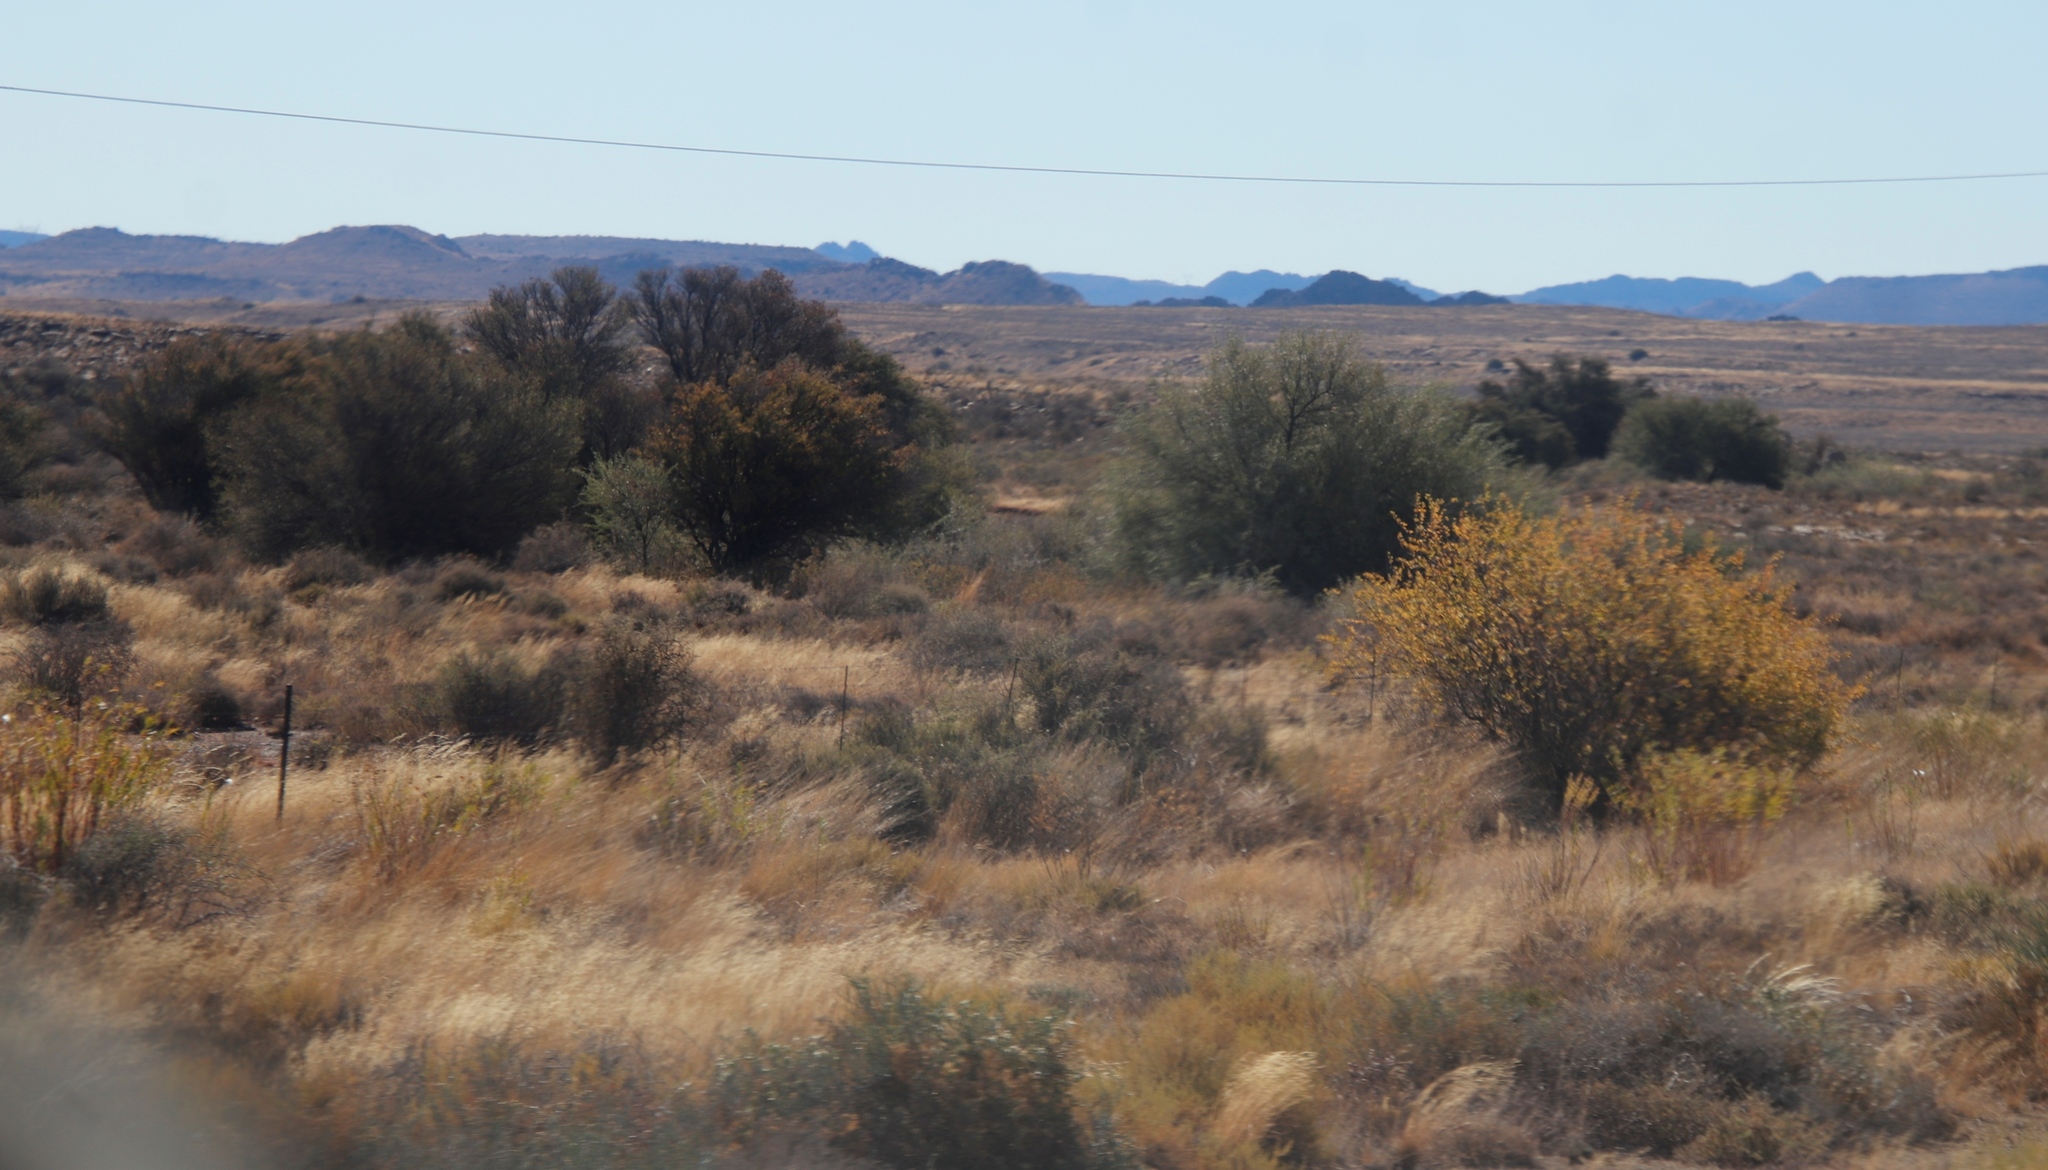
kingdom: Plantae
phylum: Tracheophyta
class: Magnoliopsida
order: Fabales
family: Fabaceae
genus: Vachellia
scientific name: Vachellia karroo
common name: Sweet thorn
